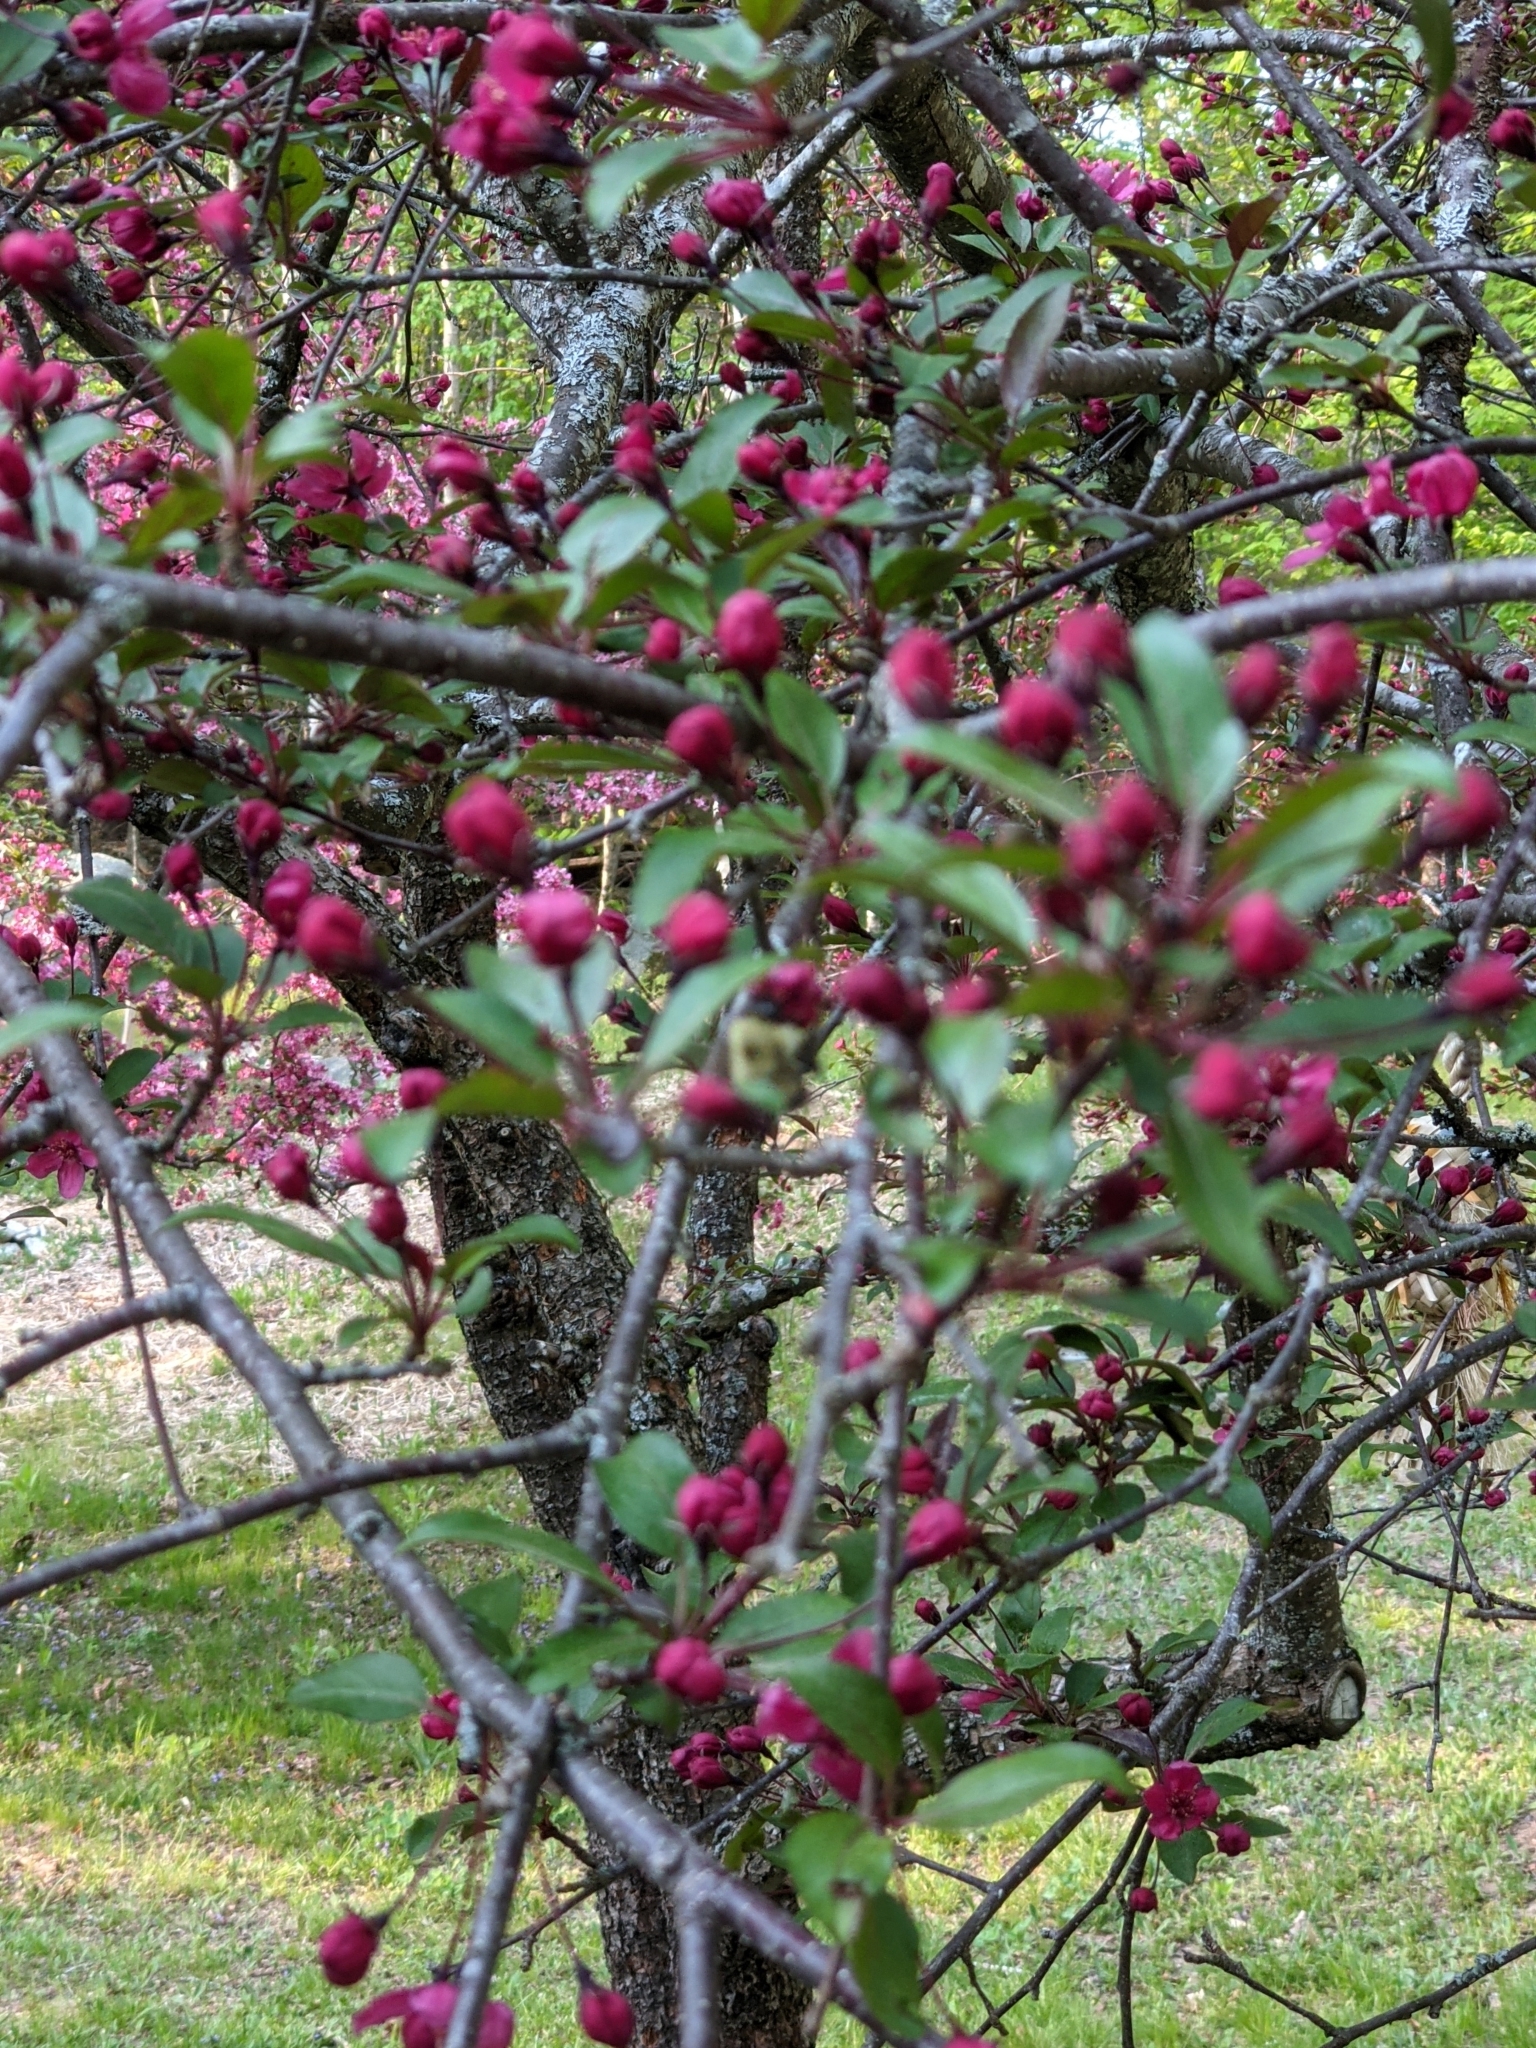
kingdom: Animalia
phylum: Arthropoda
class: Insecta
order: Hymenoptera
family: Apidae
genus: Bombus
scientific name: Bombus impatiens
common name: Common eastern bumble bee
